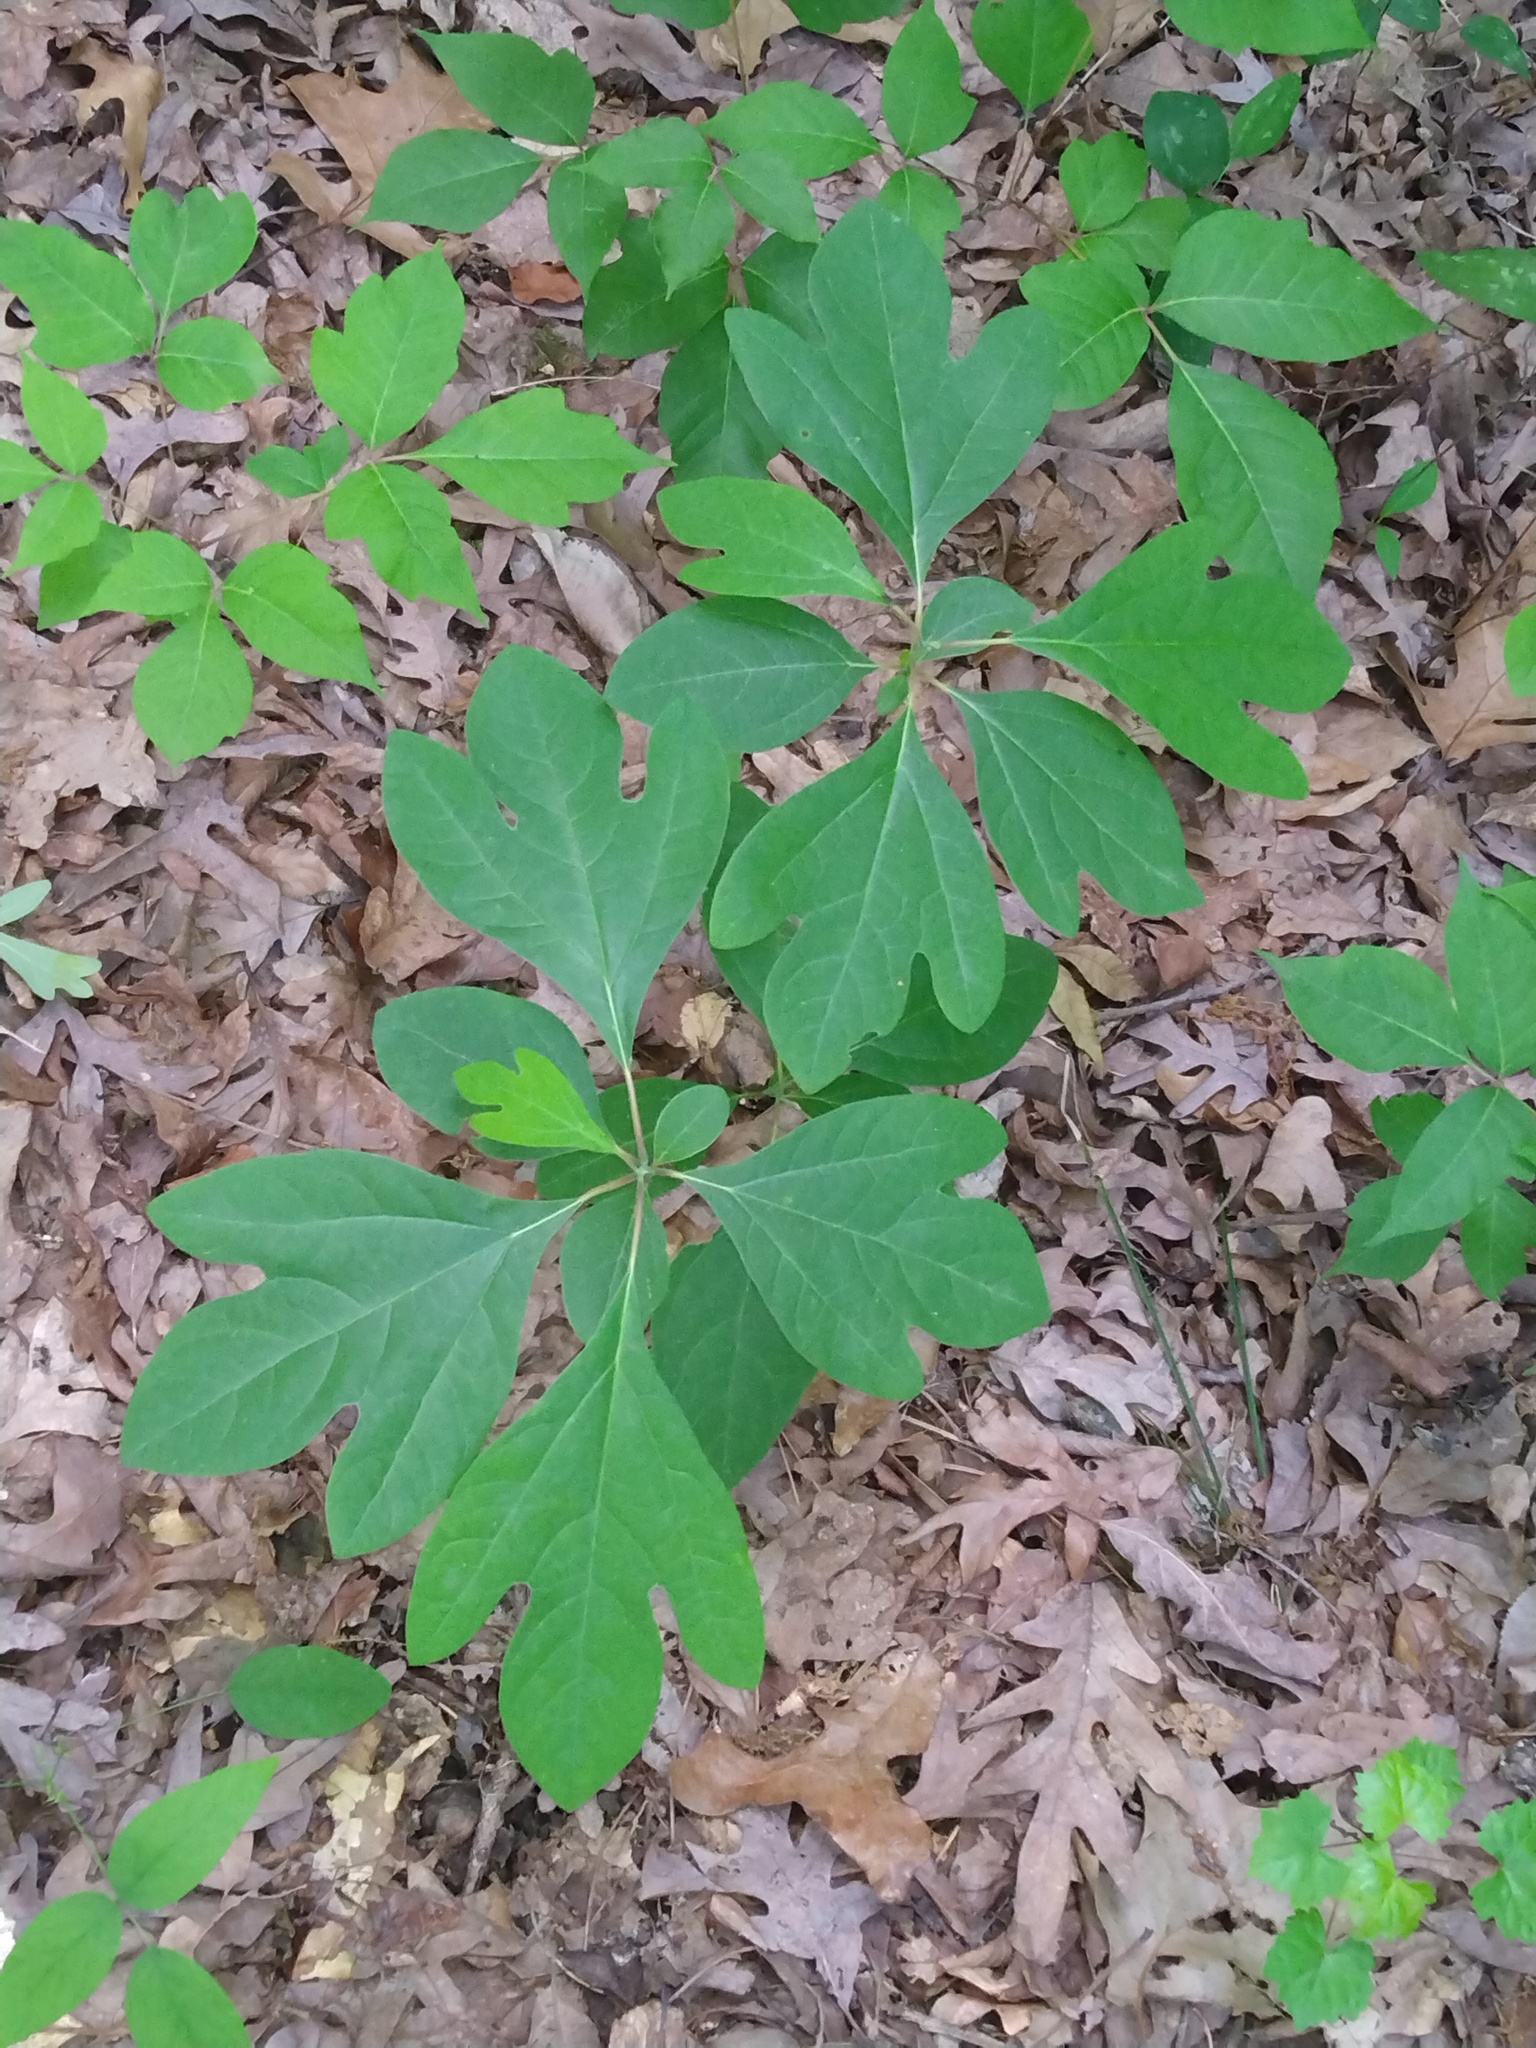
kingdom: Plantae
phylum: Tracheophyta
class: Magnoliopsida
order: Laurales
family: Lauraceae
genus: Sassafras
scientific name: Sassafras albidum
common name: Sassafras
